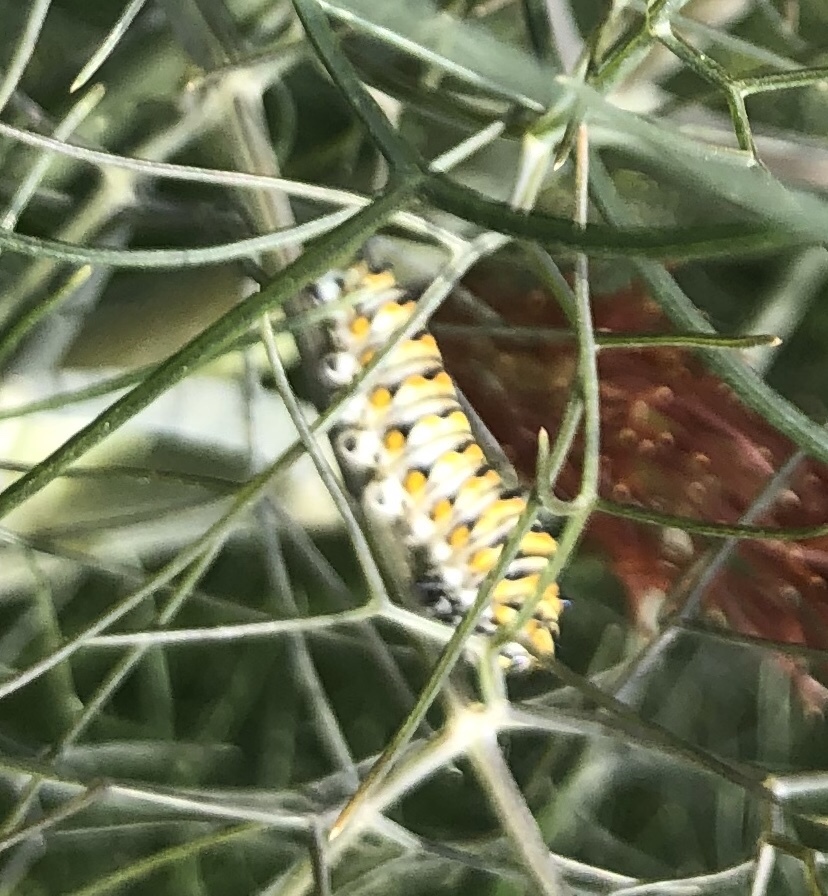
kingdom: Animalia
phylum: Arthropoda
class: Insecta
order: Lepidoptera
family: Papilionidae
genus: Papilio
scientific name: Papilio polyxenes
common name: Black swallowtail
